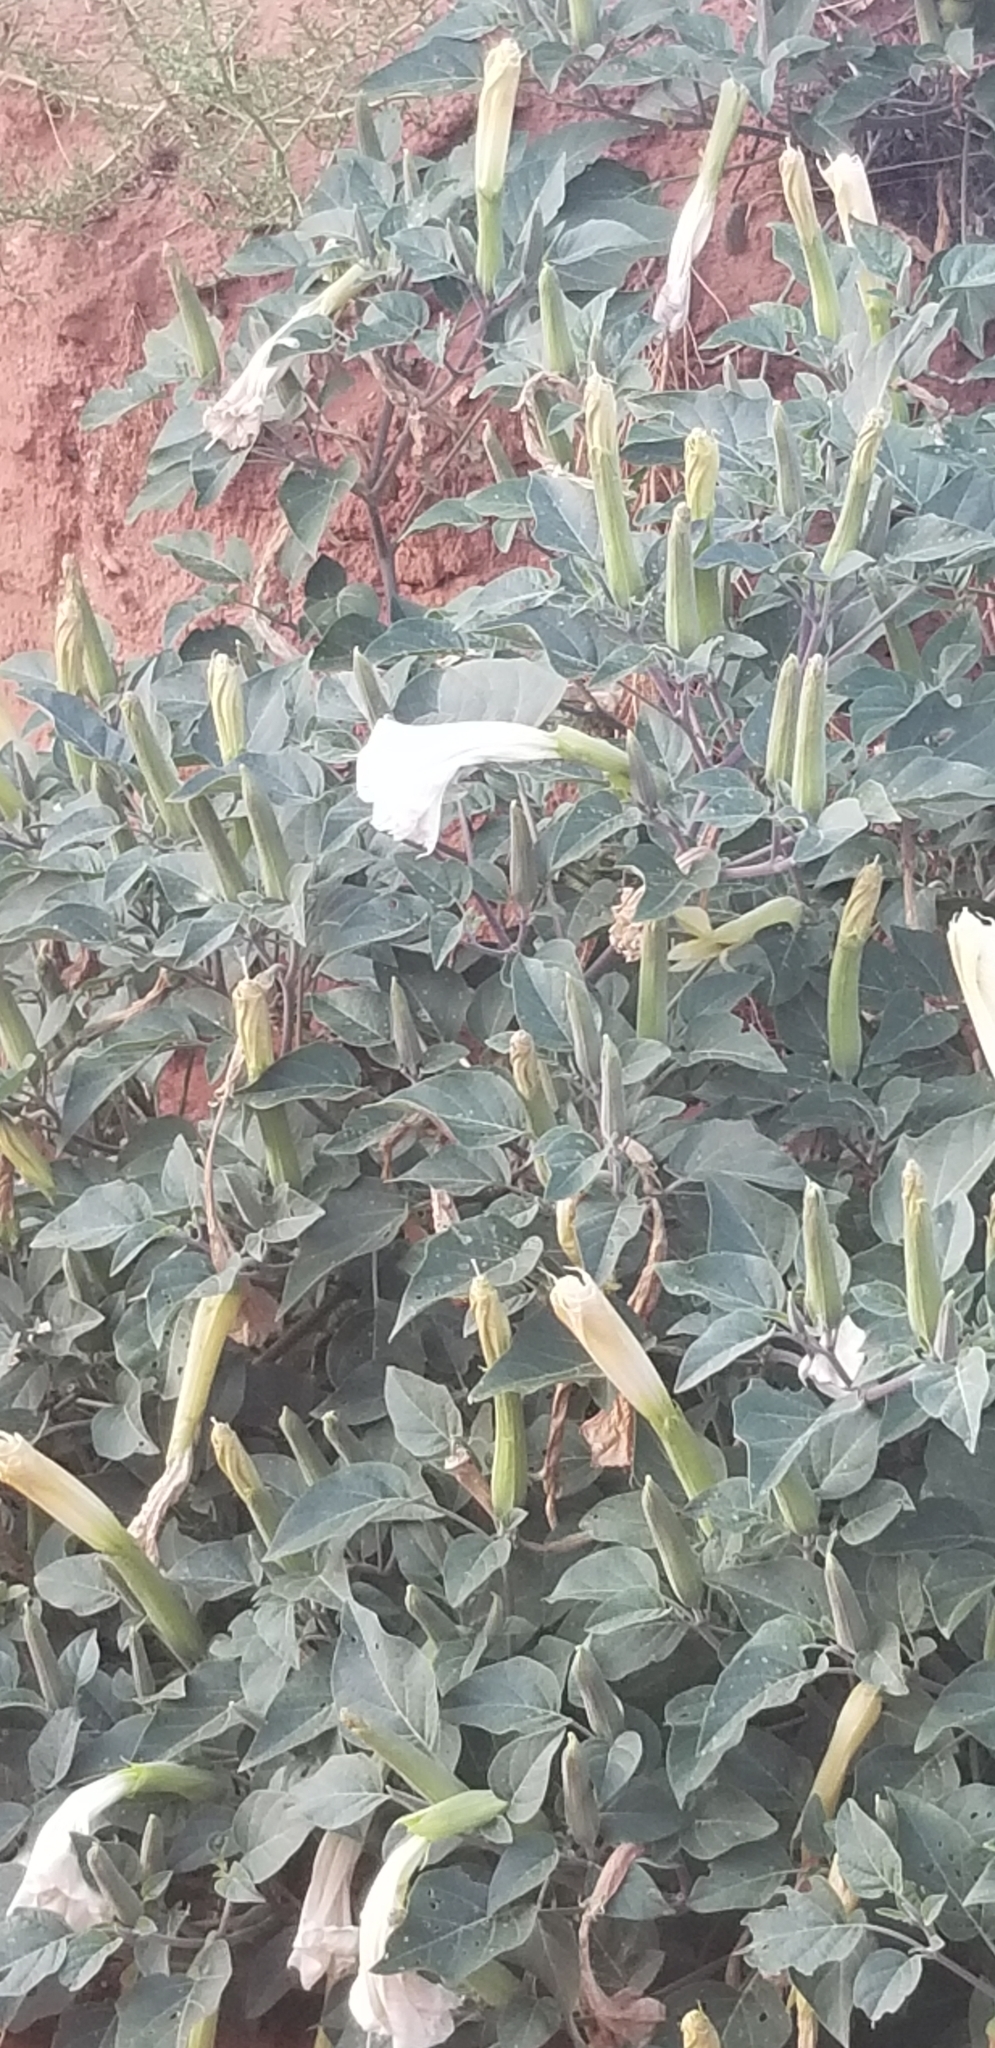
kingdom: Plantae
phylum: Tracheophyta
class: Magnoliopsida
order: Solanales
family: Solanaceae
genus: Datura
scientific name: Datura wrightii
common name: Sacred thorn-apple
